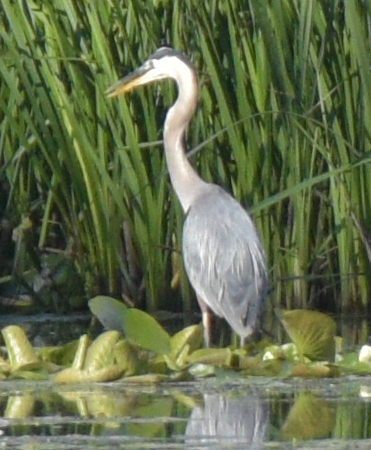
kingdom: Animalia
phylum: Chordata
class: Aves
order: Pelecaniformes
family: Ardeidae
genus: Ardea
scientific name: Ardea herodias
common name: Great blue heron
